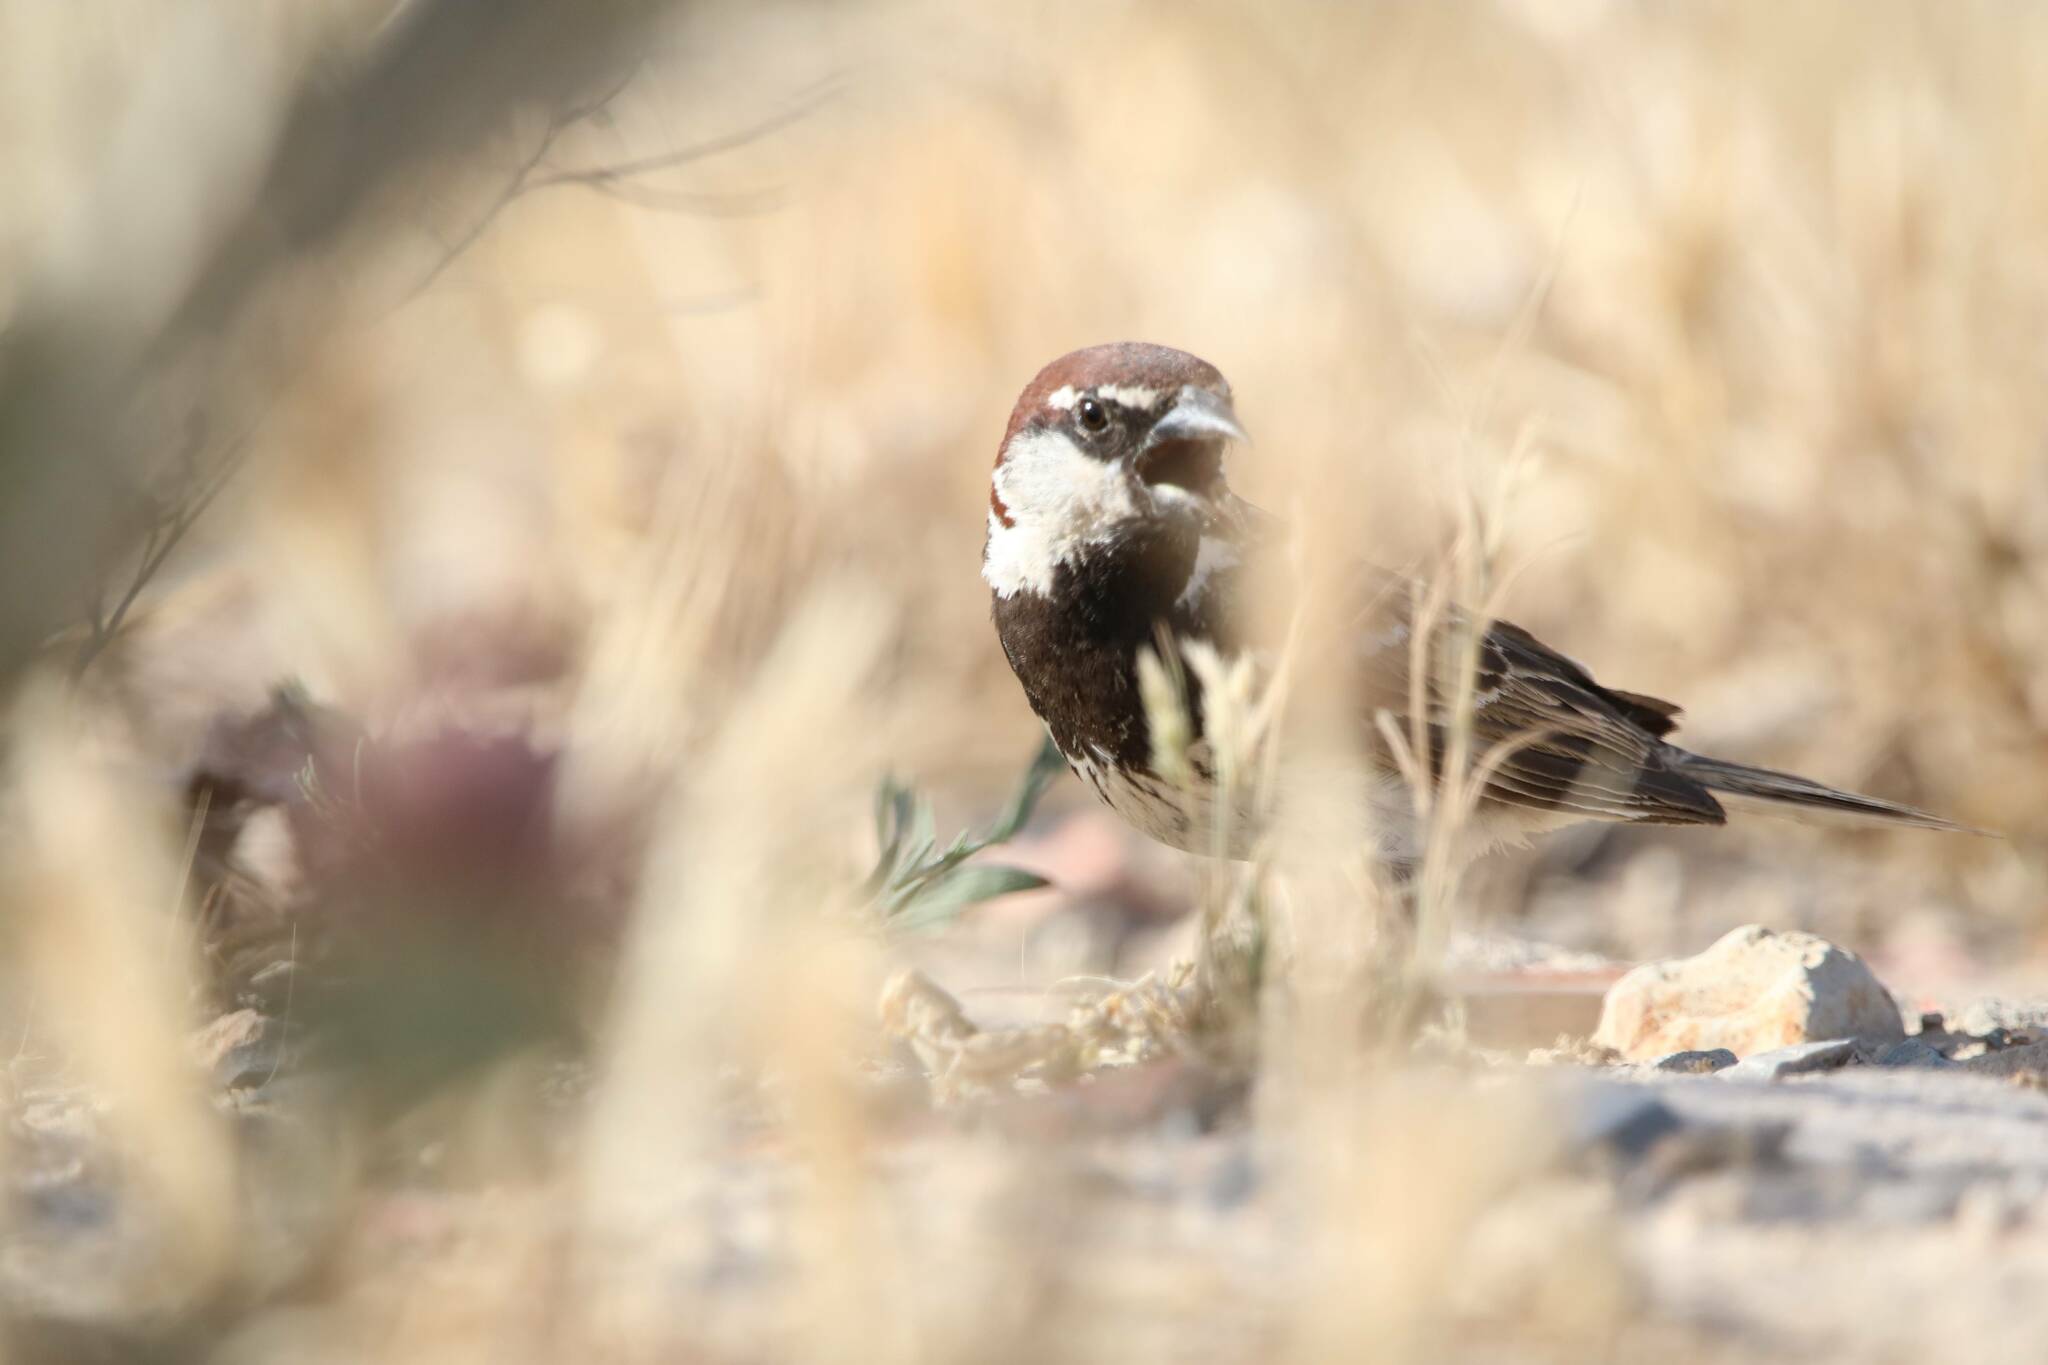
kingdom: Animalia
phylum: Chordata
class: Aves
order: Passeriformes
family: Passeridae
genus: Passer
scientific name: Passer hispaniolensis
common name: Spanish sparrow
